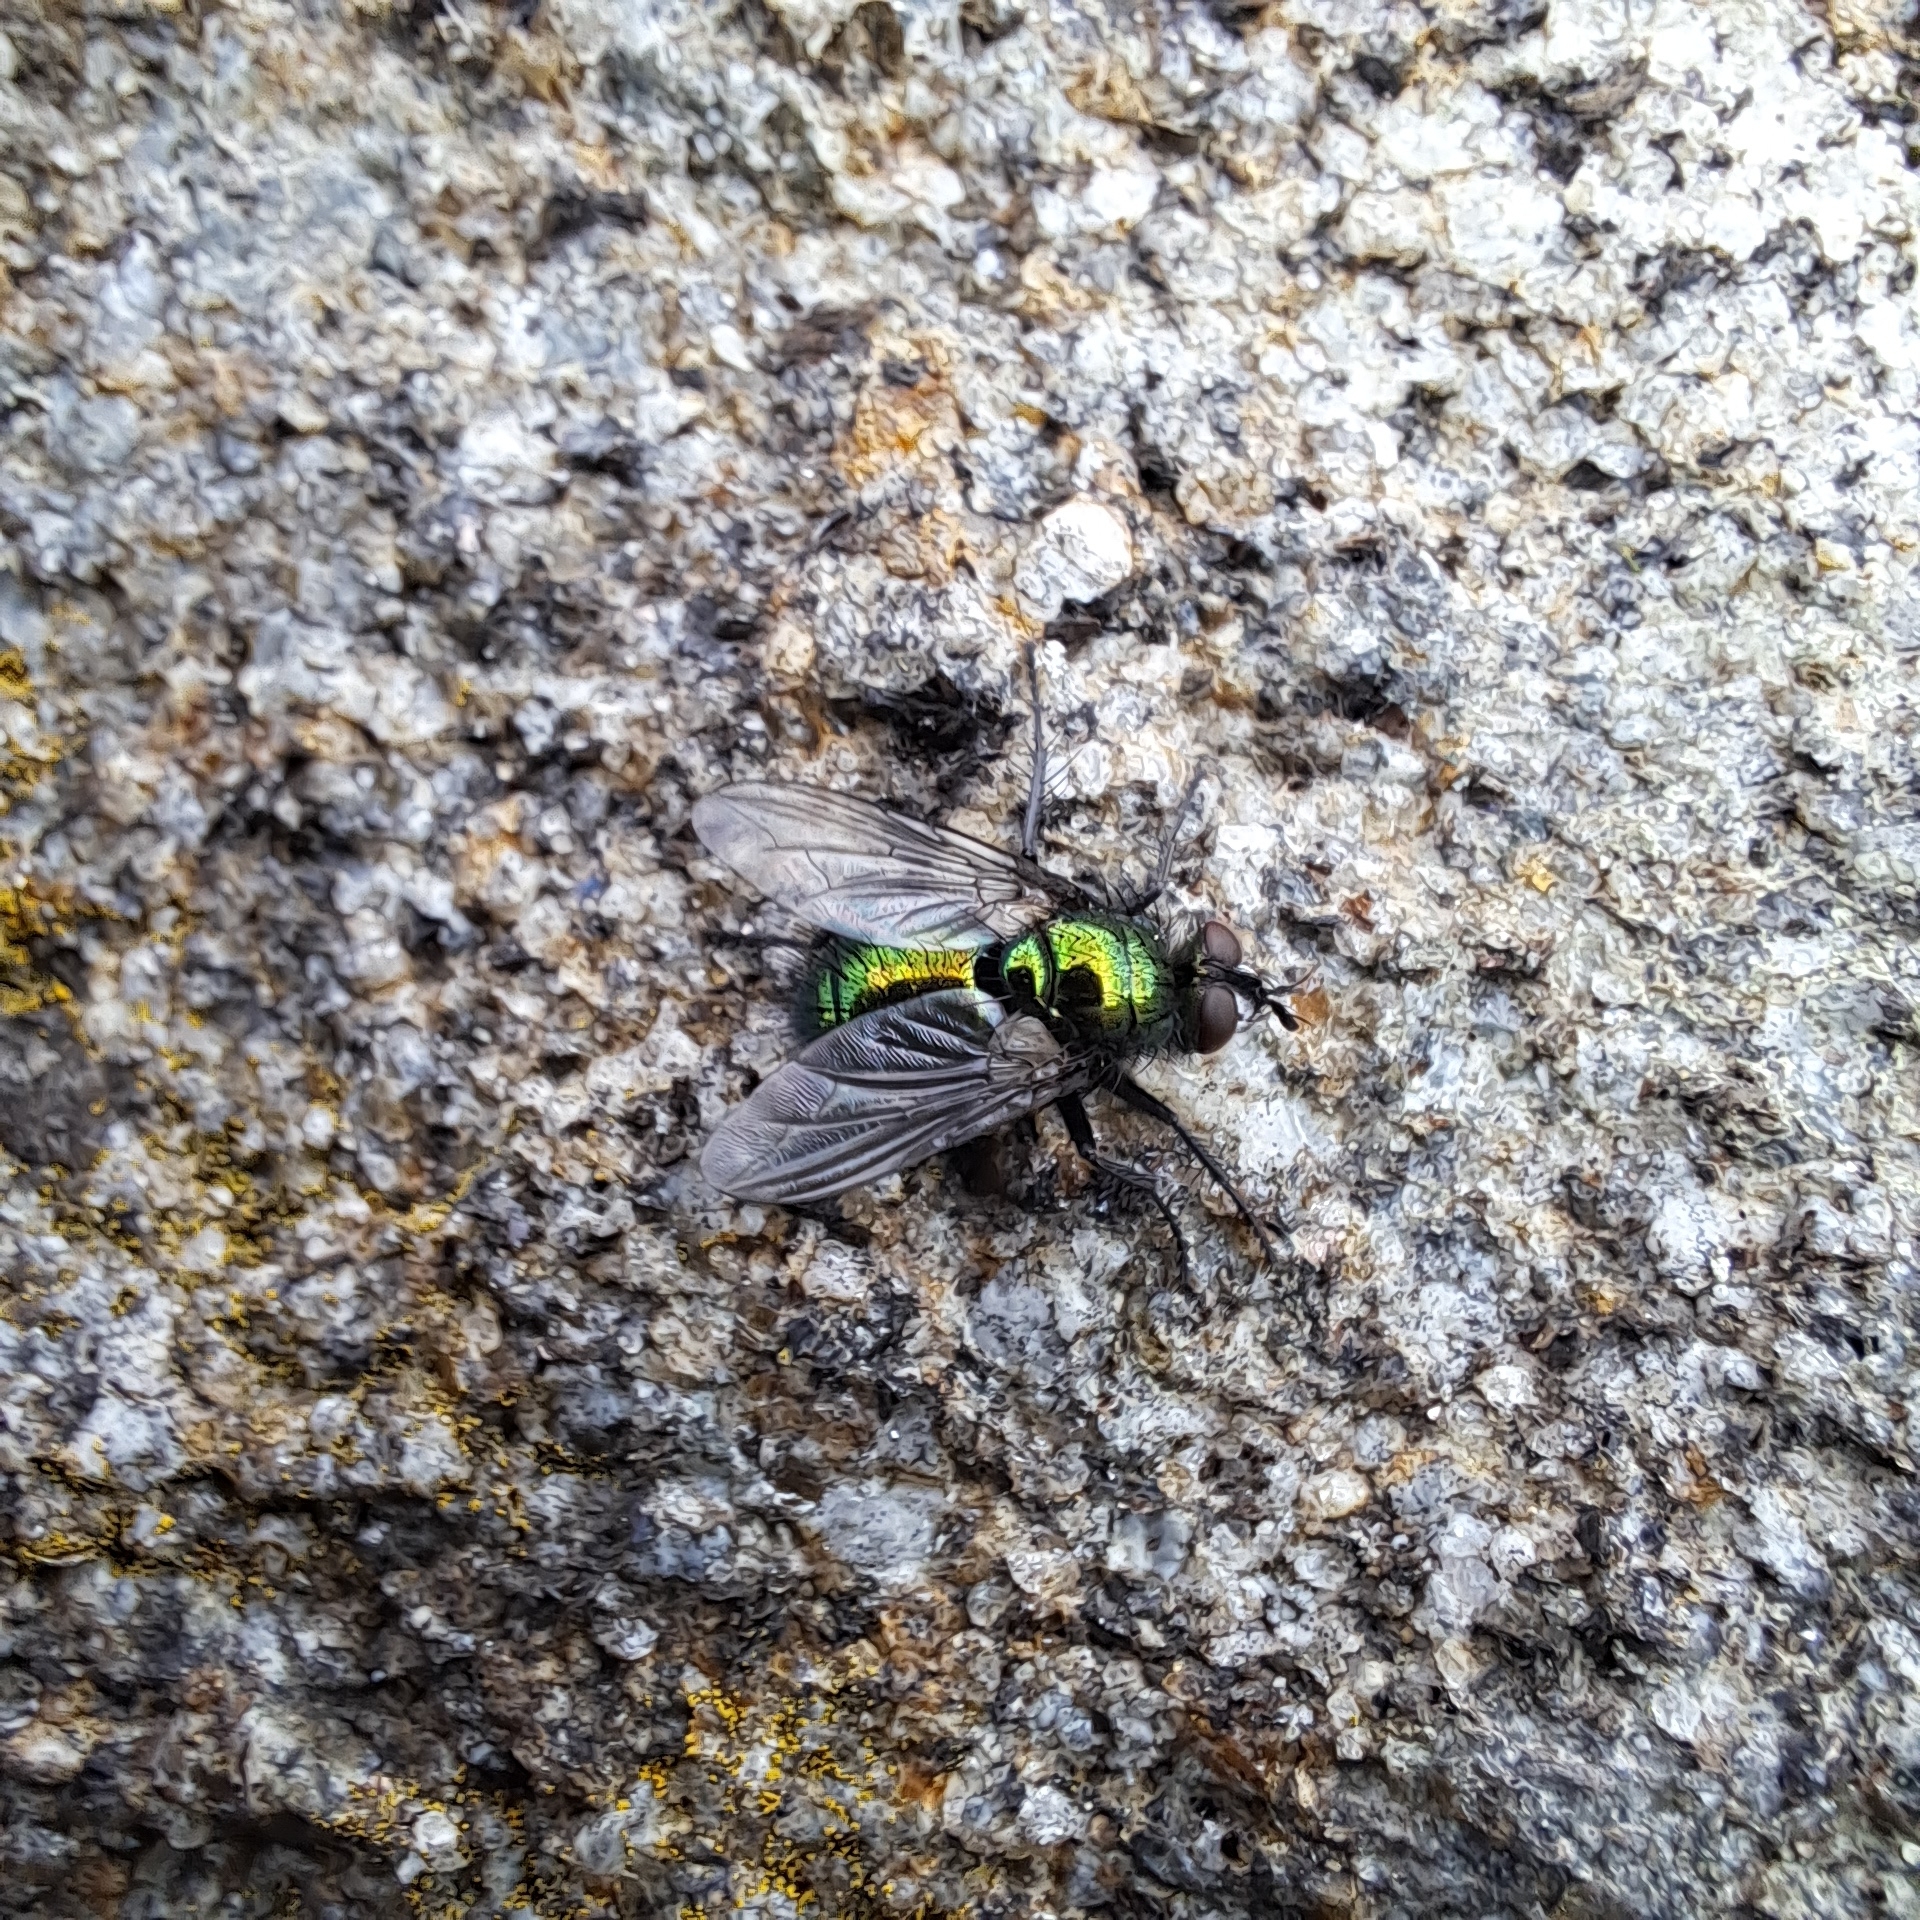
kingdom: Animalia
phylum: Arthropoda
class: Insecta
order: Diptera
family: Tachinidae
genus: Gymnocheta
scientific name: Gymnocheta viridis
